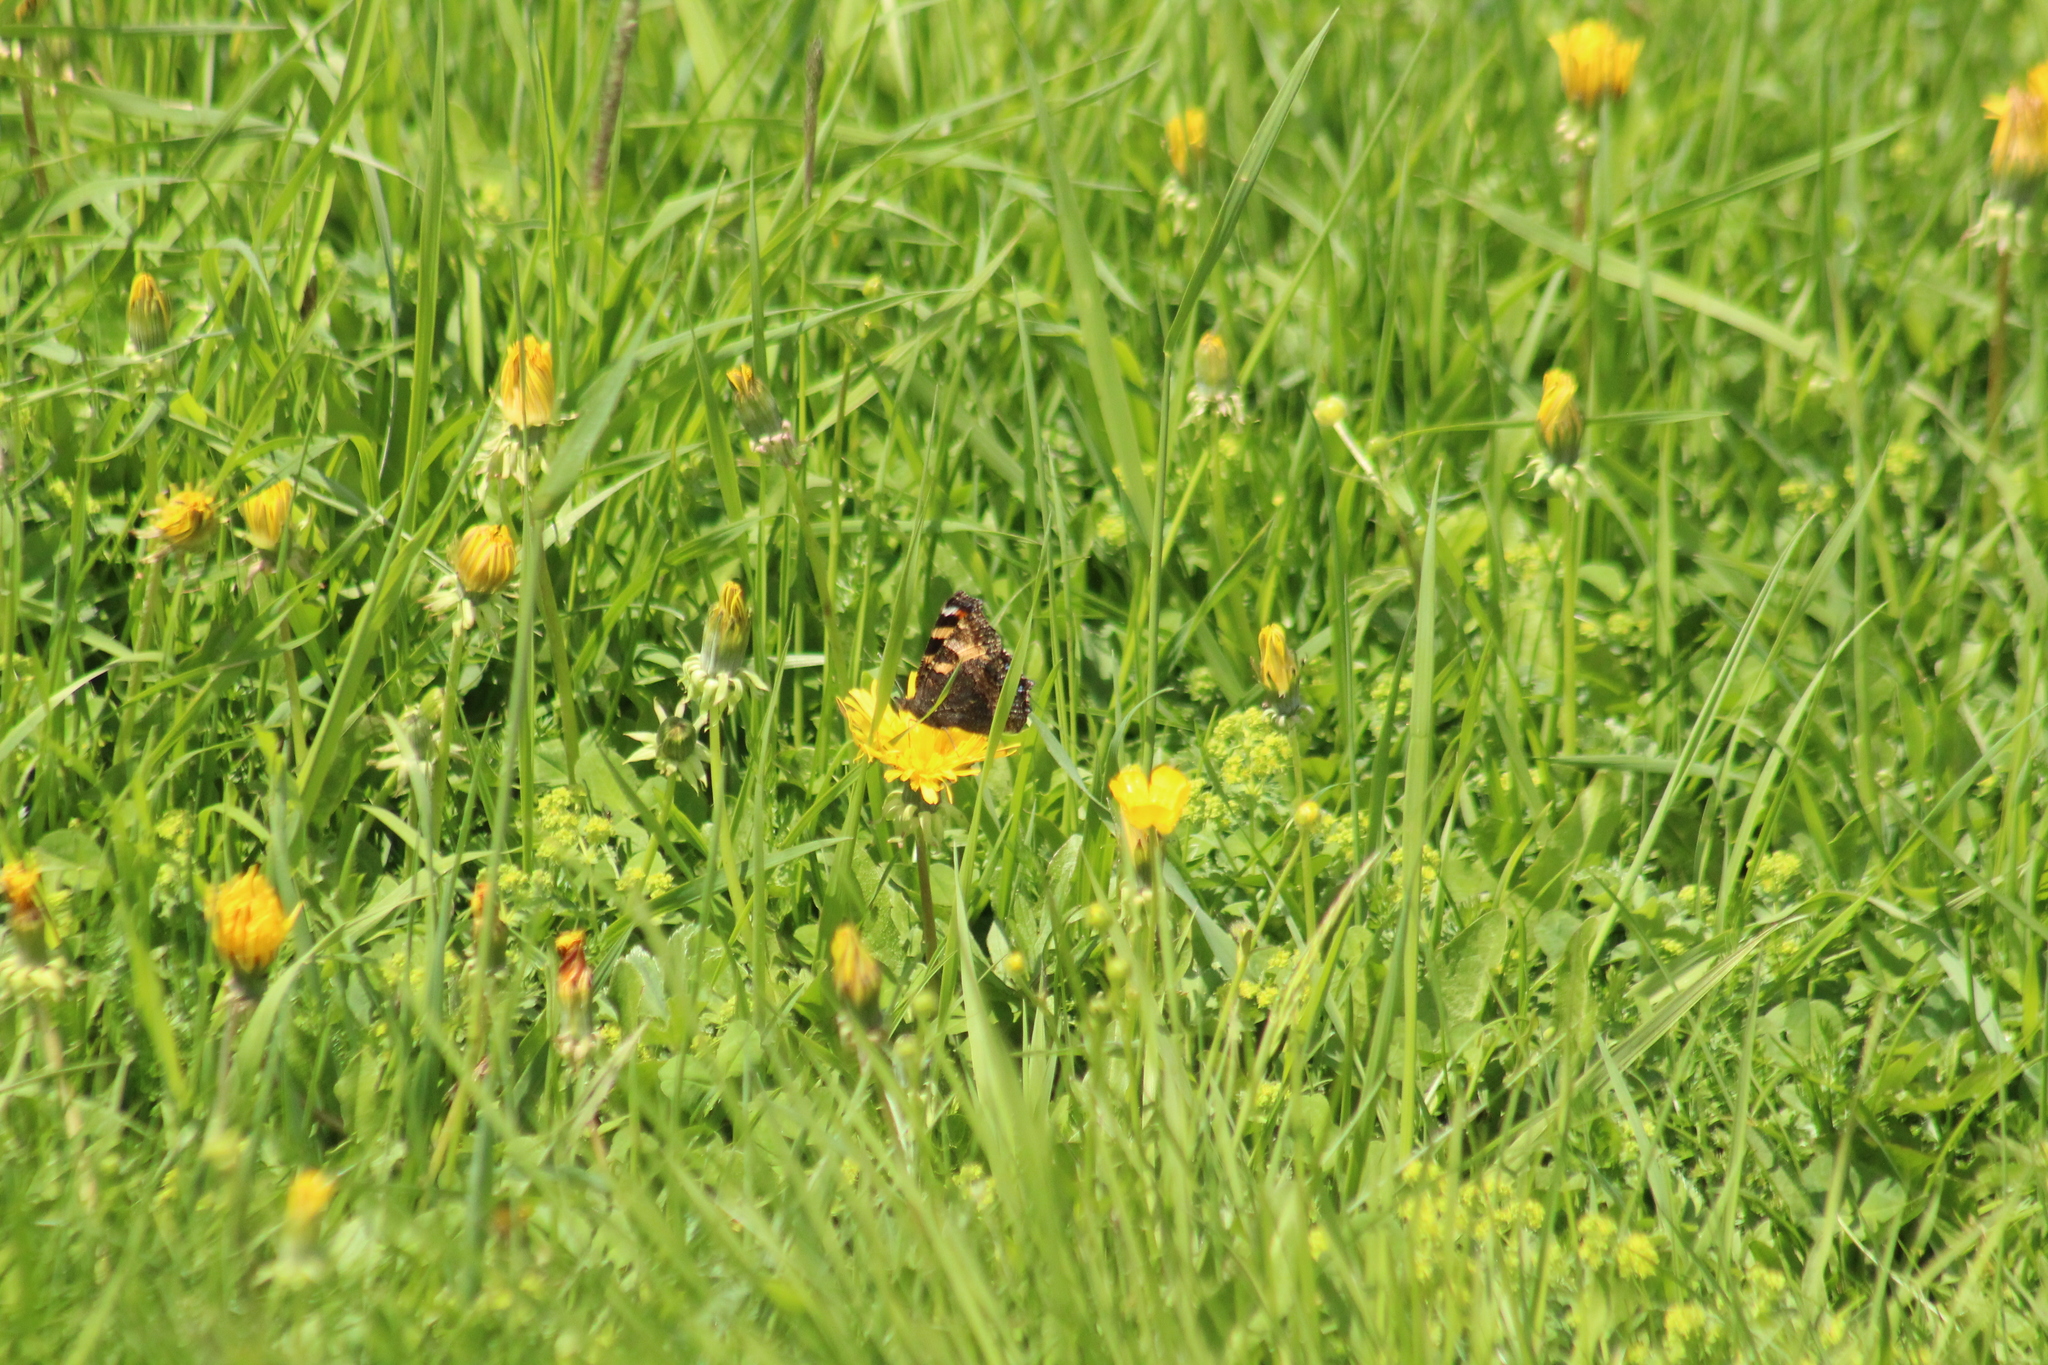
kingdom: Animalia
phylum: Arthropoda
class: Insecta
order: Lepidoptera
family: Nymphalidae
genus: Aglais
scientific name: Aglais urticae
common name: Small tortoiseshell
